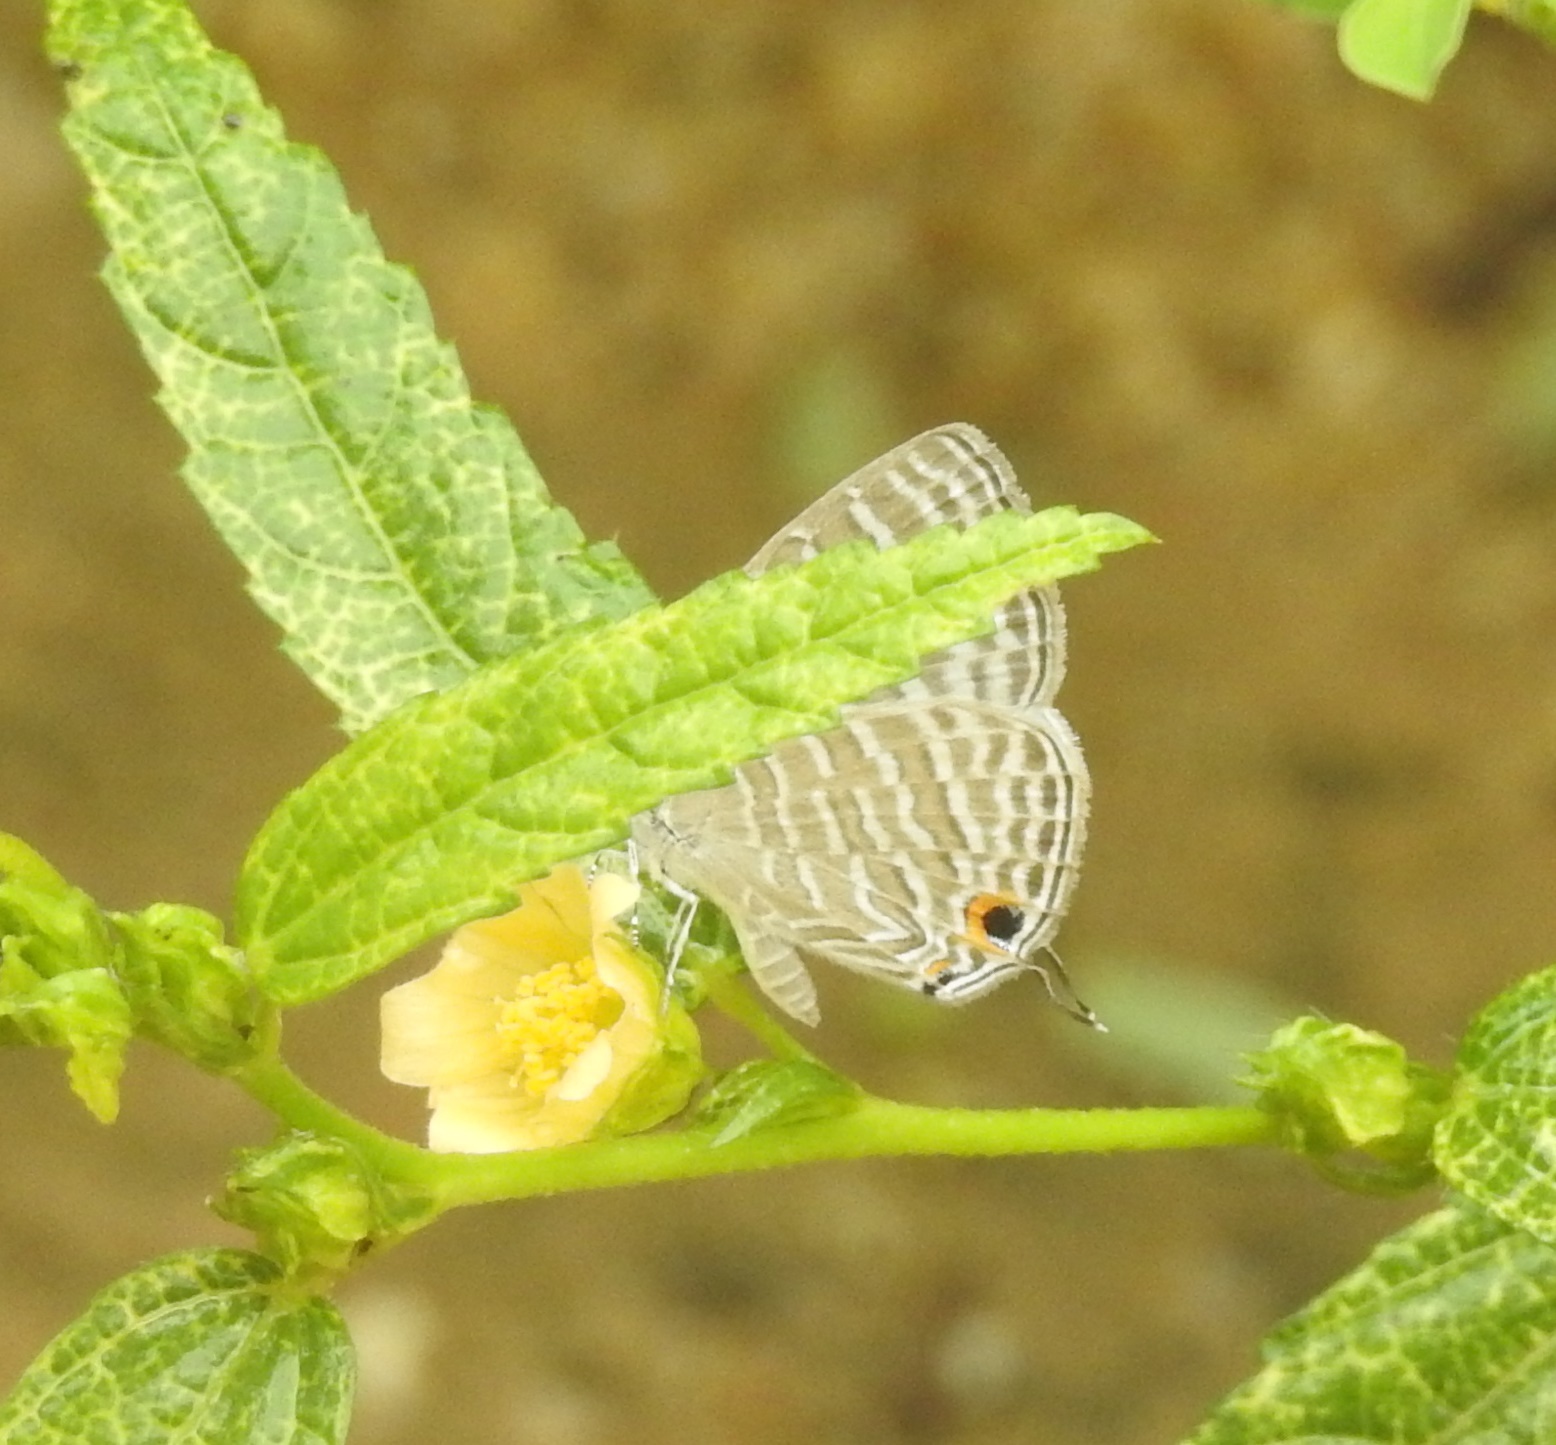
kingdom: Animalia
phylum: Arthropoda
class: Insecta
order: Lepidoptera
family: Lycaenidae
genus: Jamides
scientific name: Jamides celeno
